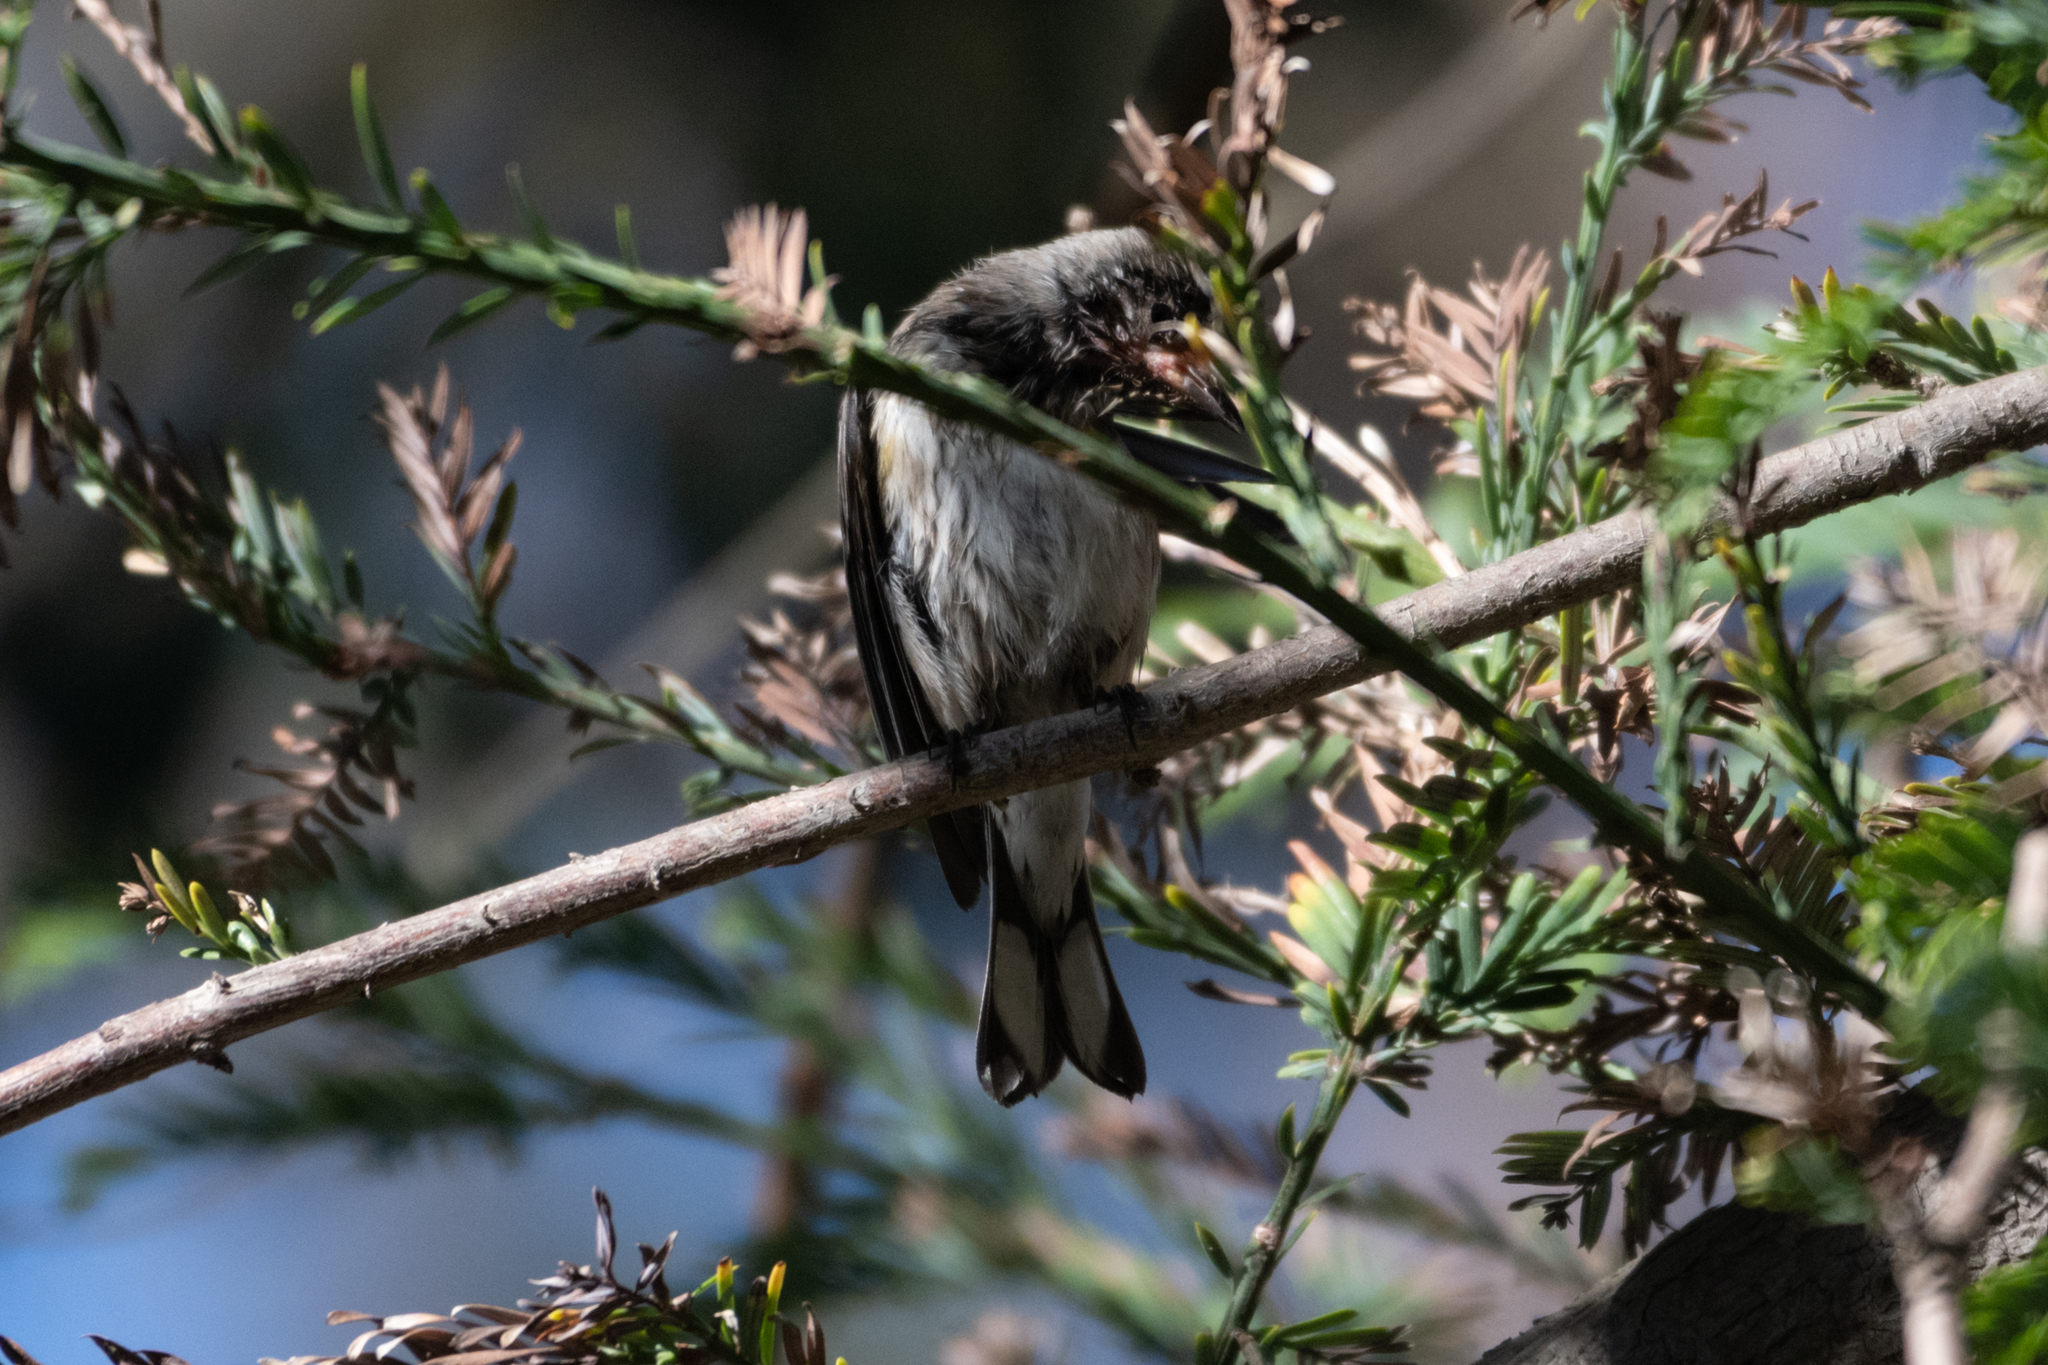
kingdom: Animalia
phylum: Chordata
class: Aves
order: Passeriformes
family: Parulidae
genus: Setophaga
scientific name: Setophaga coronata
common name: Myrtle warbler
